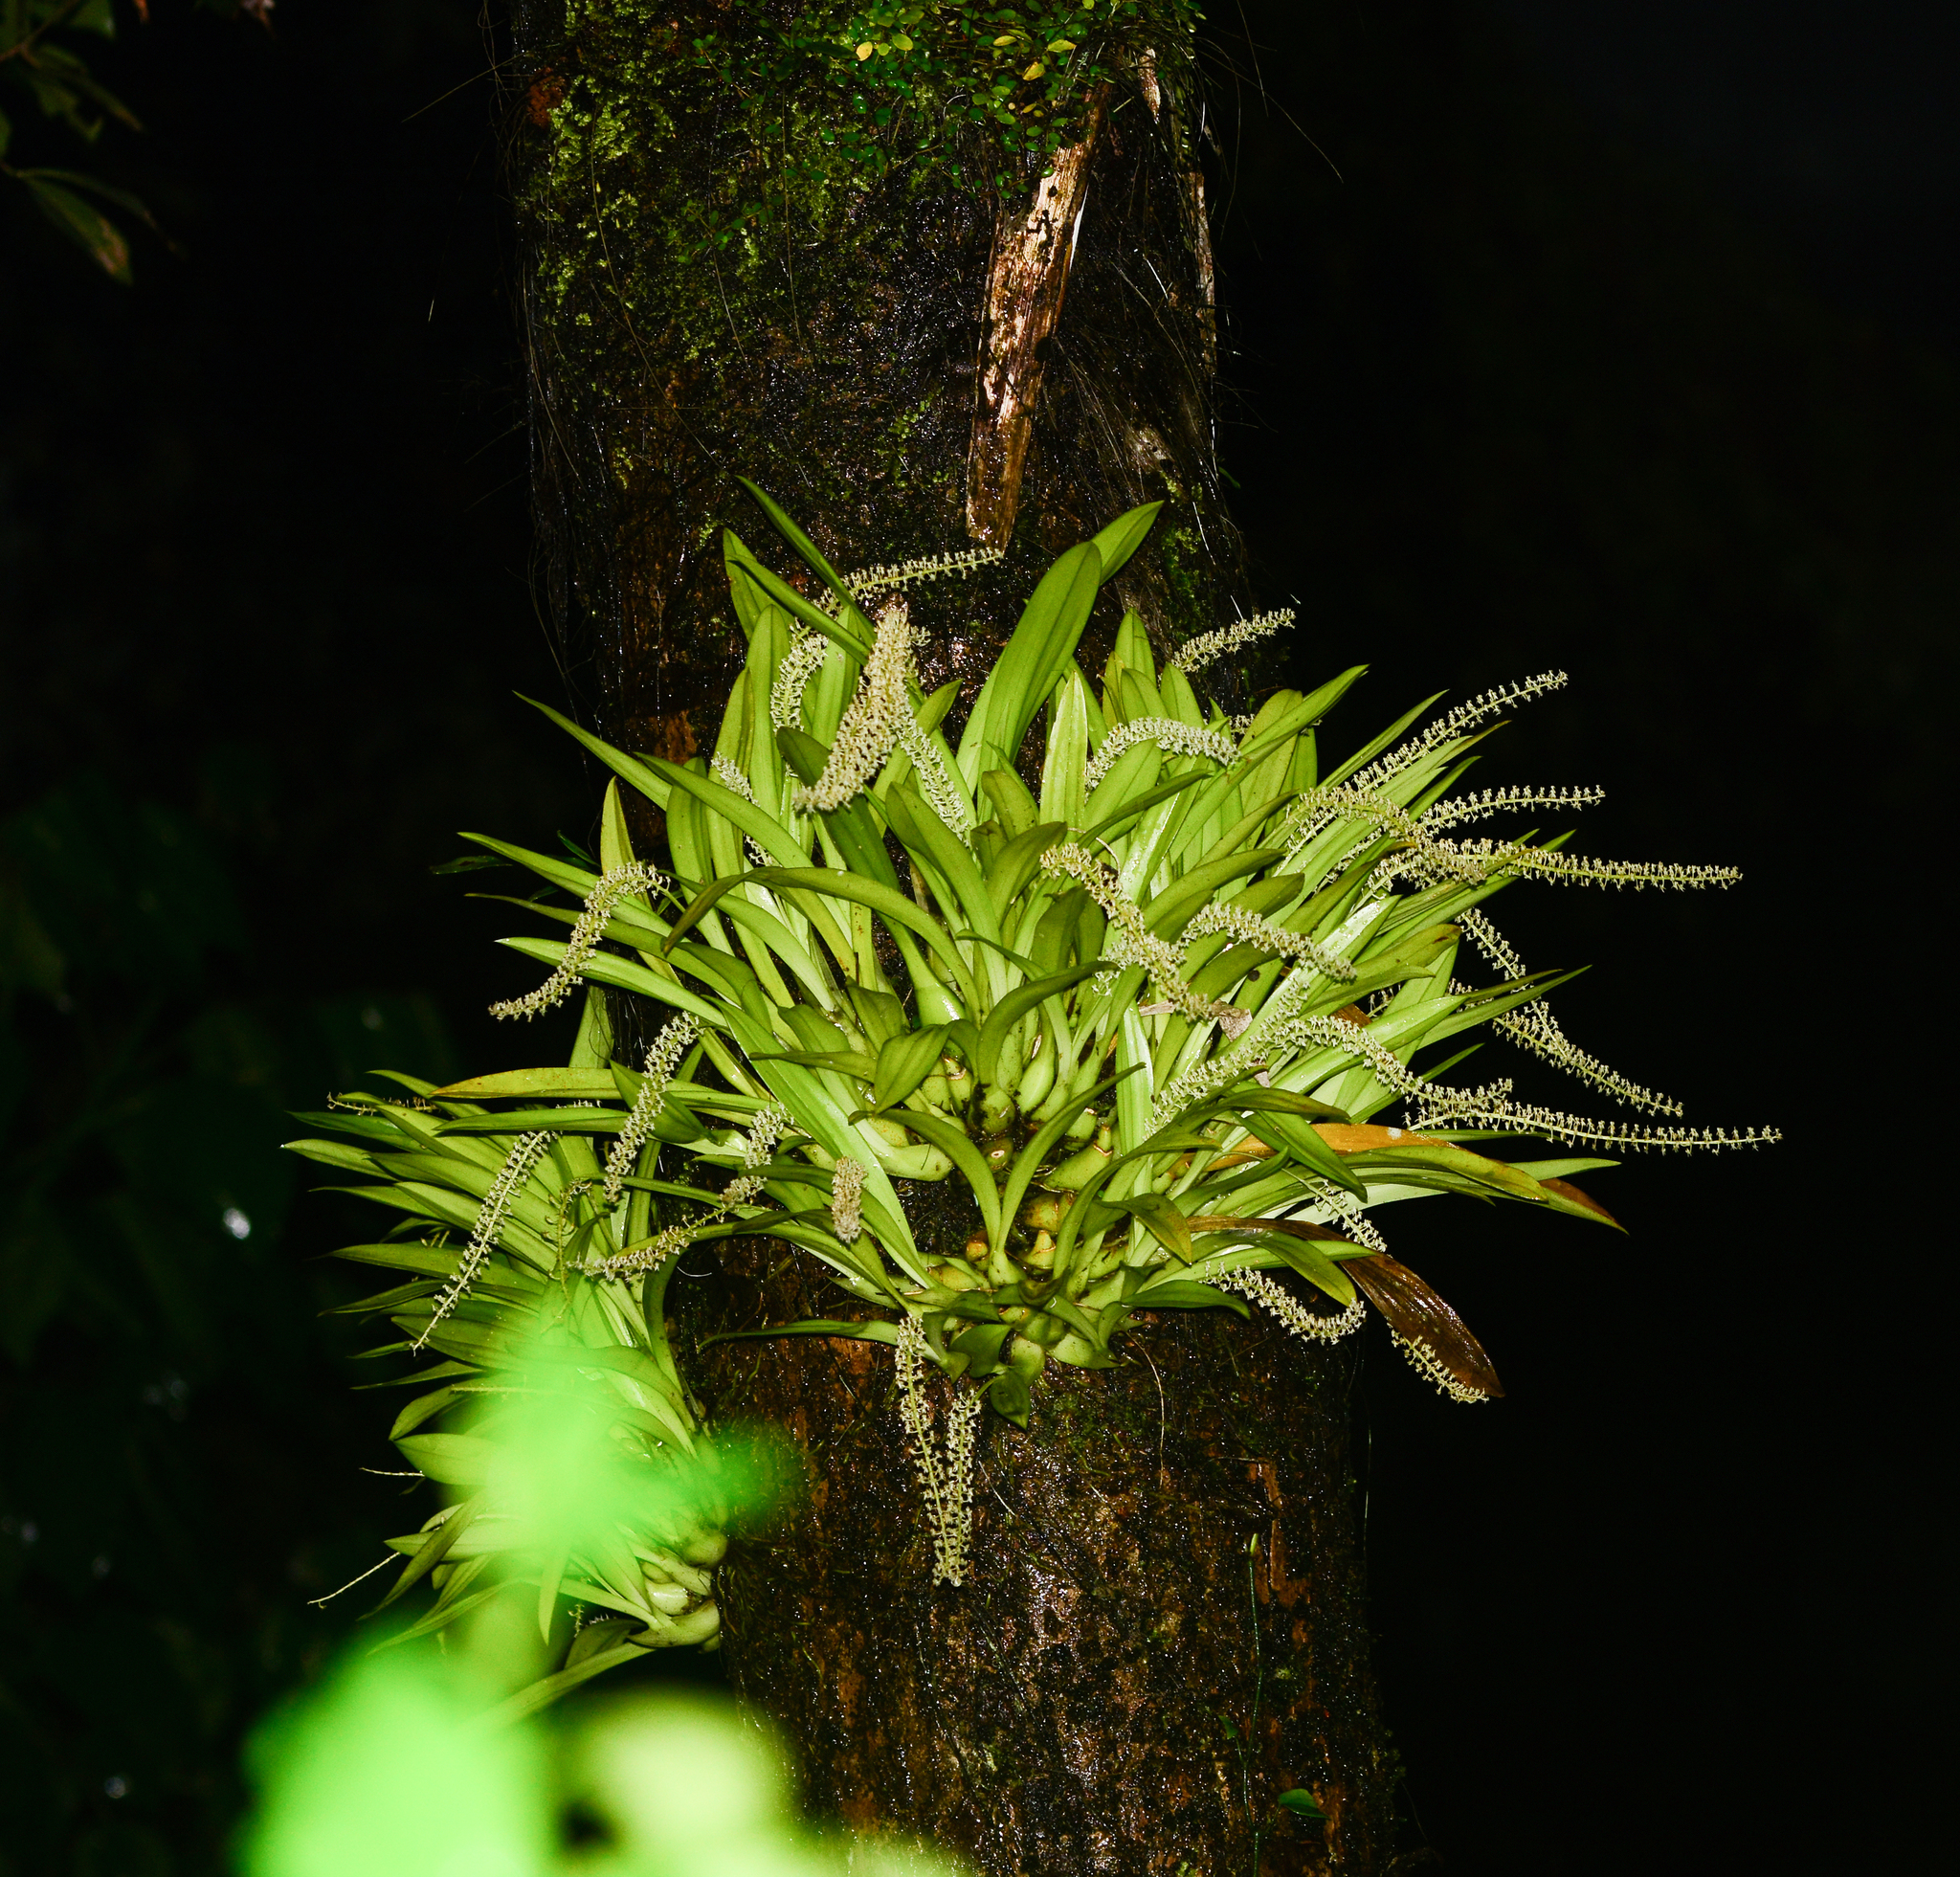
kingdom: Plantae
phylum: Tracheophyta
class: Liliopsida
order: Asparagales
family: Orchidaceae
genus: Liparis
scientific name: Liparis viridiflora
